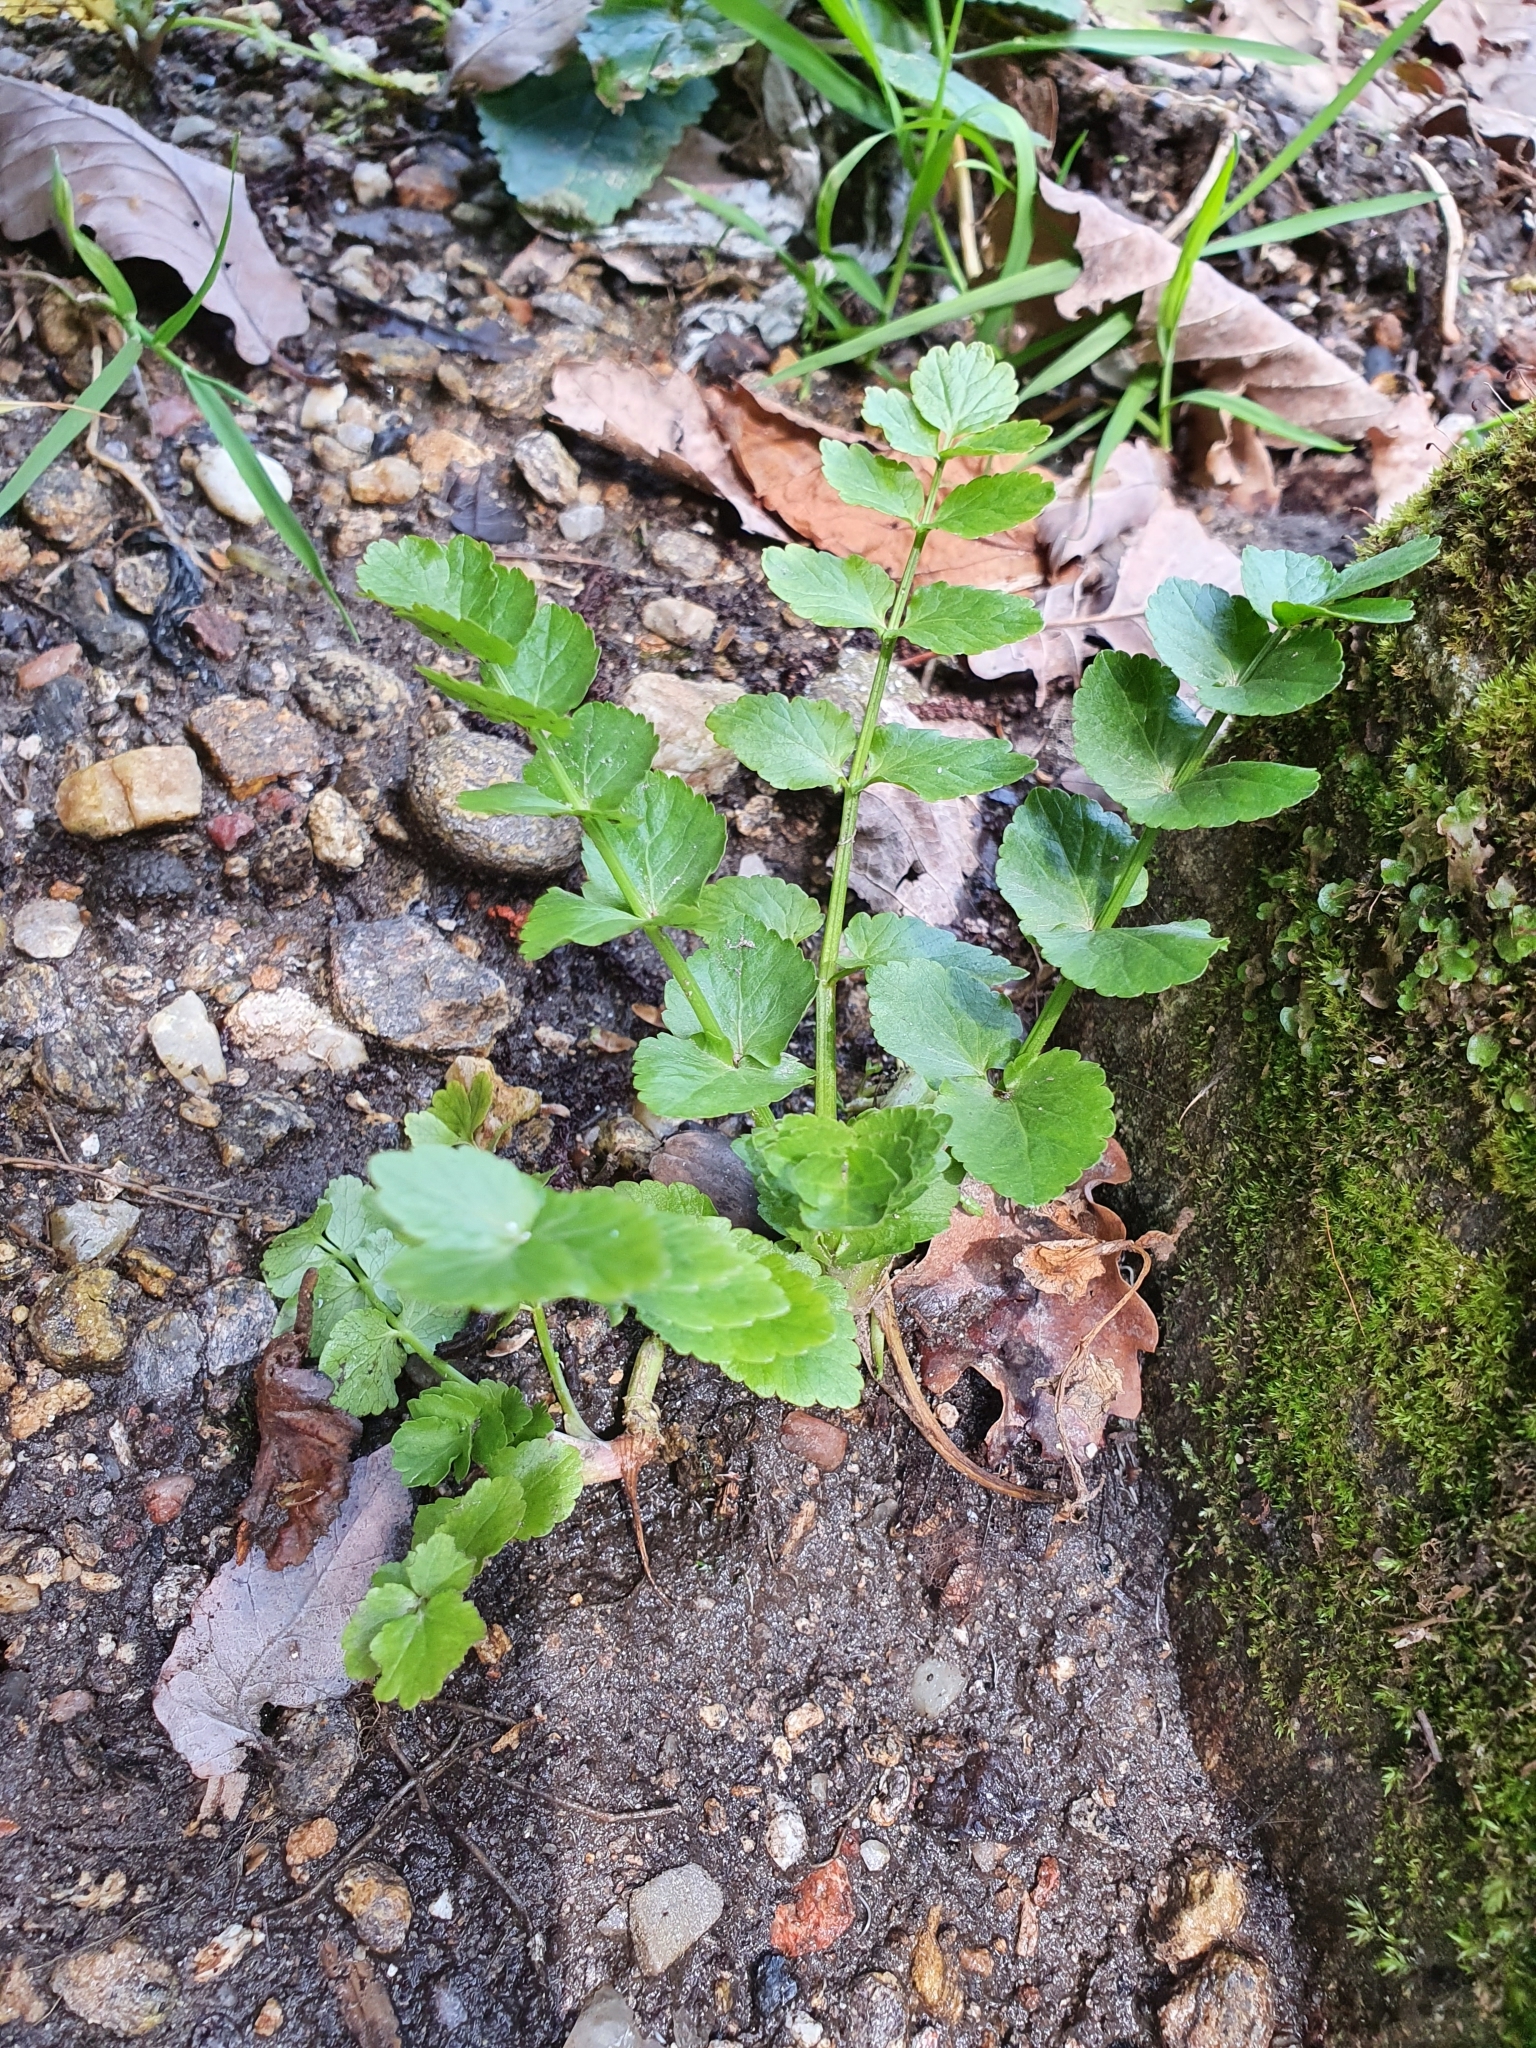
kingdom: Plantae
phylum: Tracheophyta
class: Magnoliopsida
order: Apiales
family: Apiaceae
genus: Helosciadium
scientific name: Helosciadium nodiflorum
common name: Fool's-watercress
